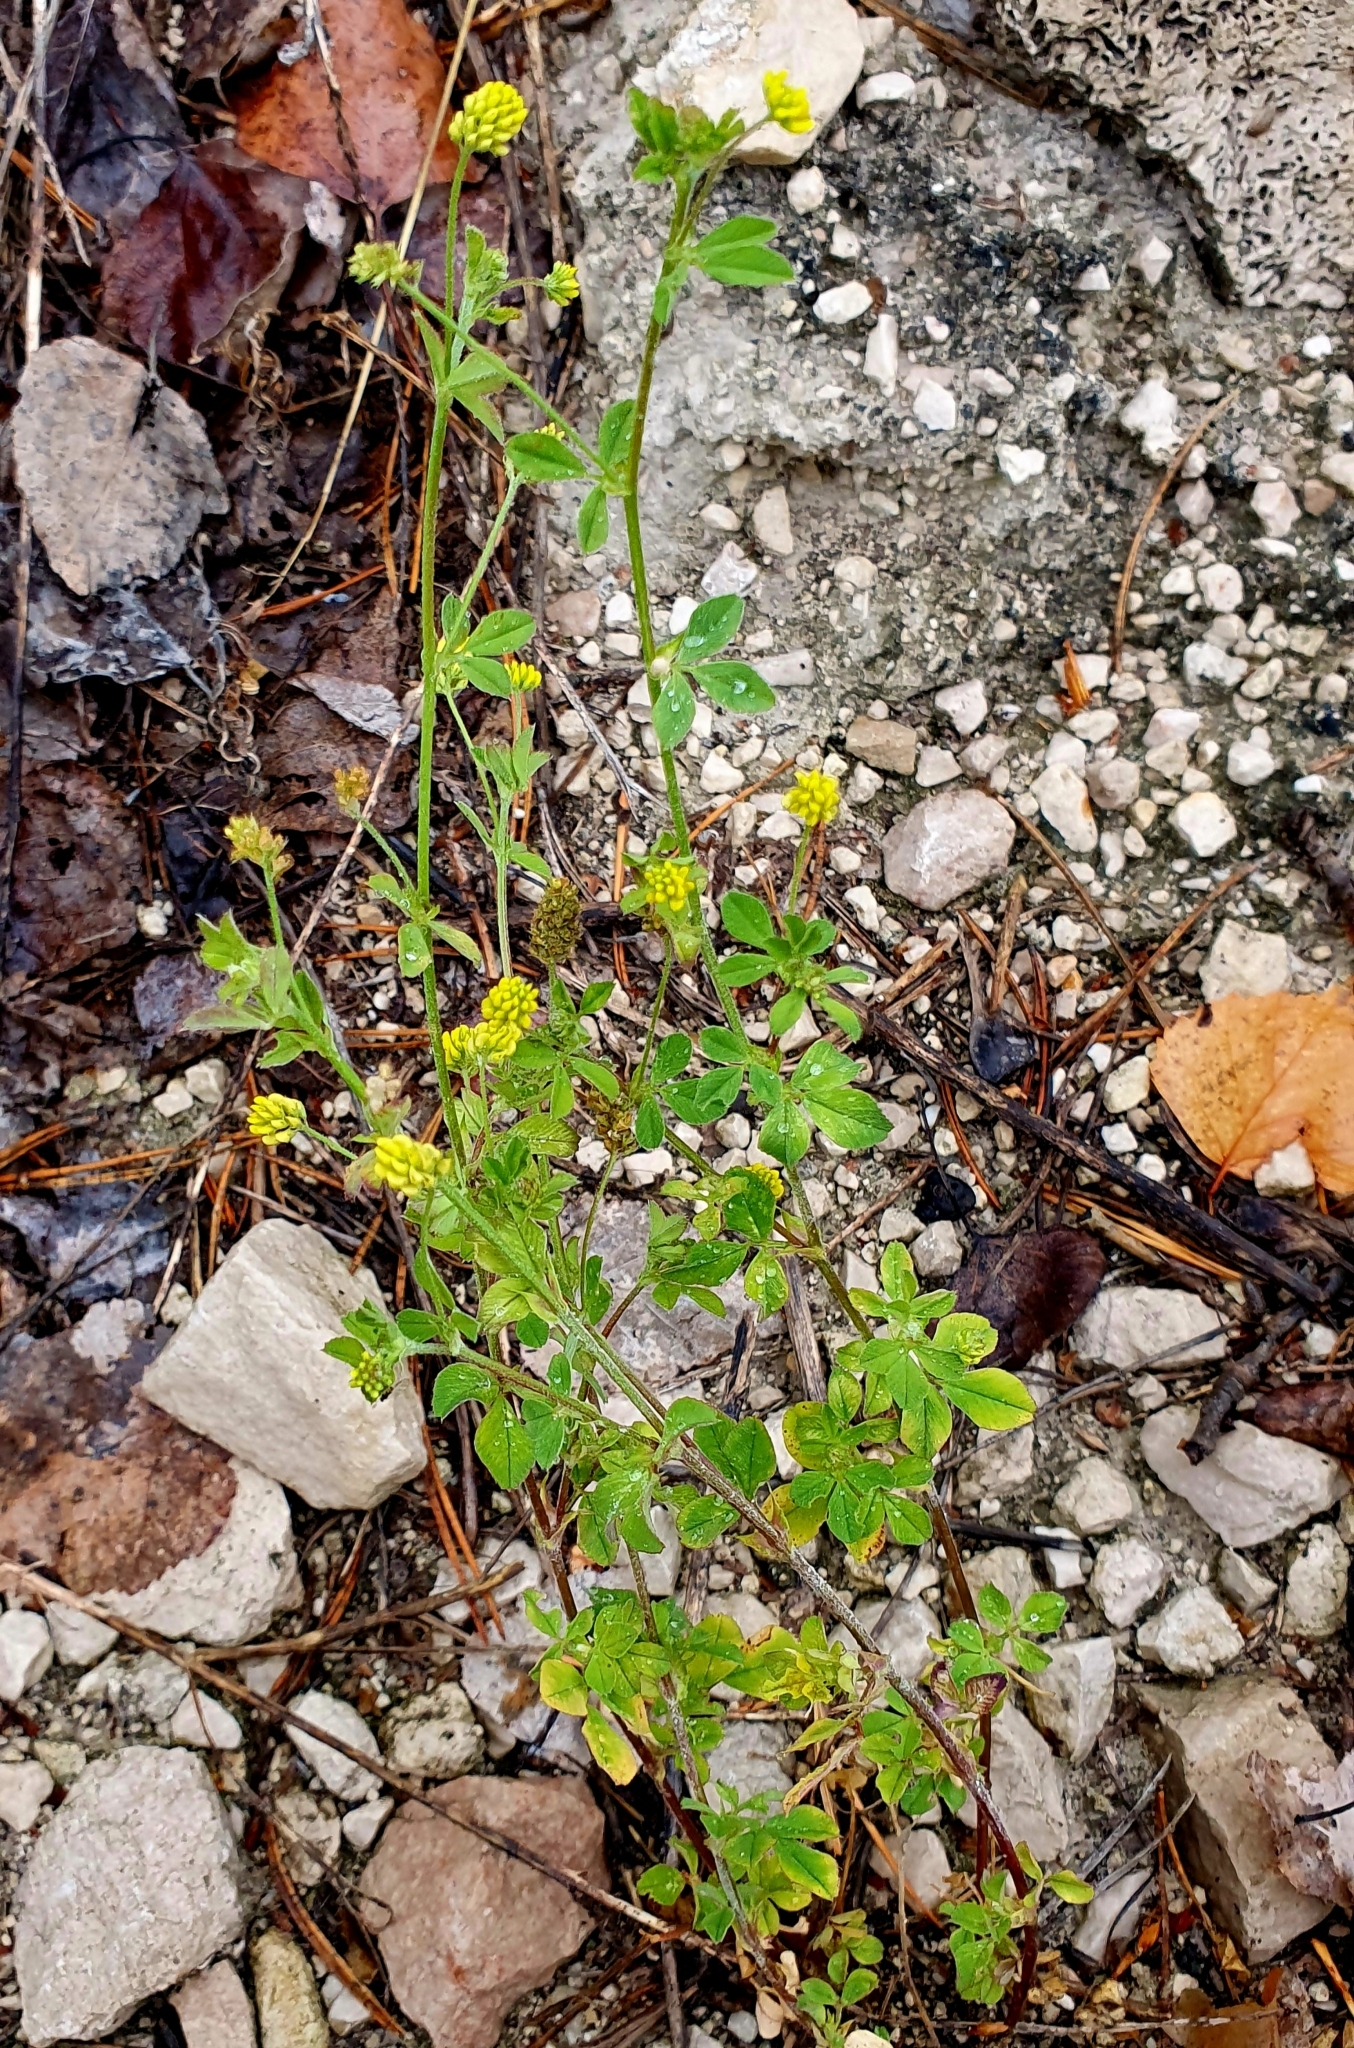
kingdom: Plantae
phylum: Tracheophyta
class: Magnoliopsida
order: Fabales
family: Fabaceae
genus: Medicago
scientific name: Medicago lupulina
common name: Black medick
